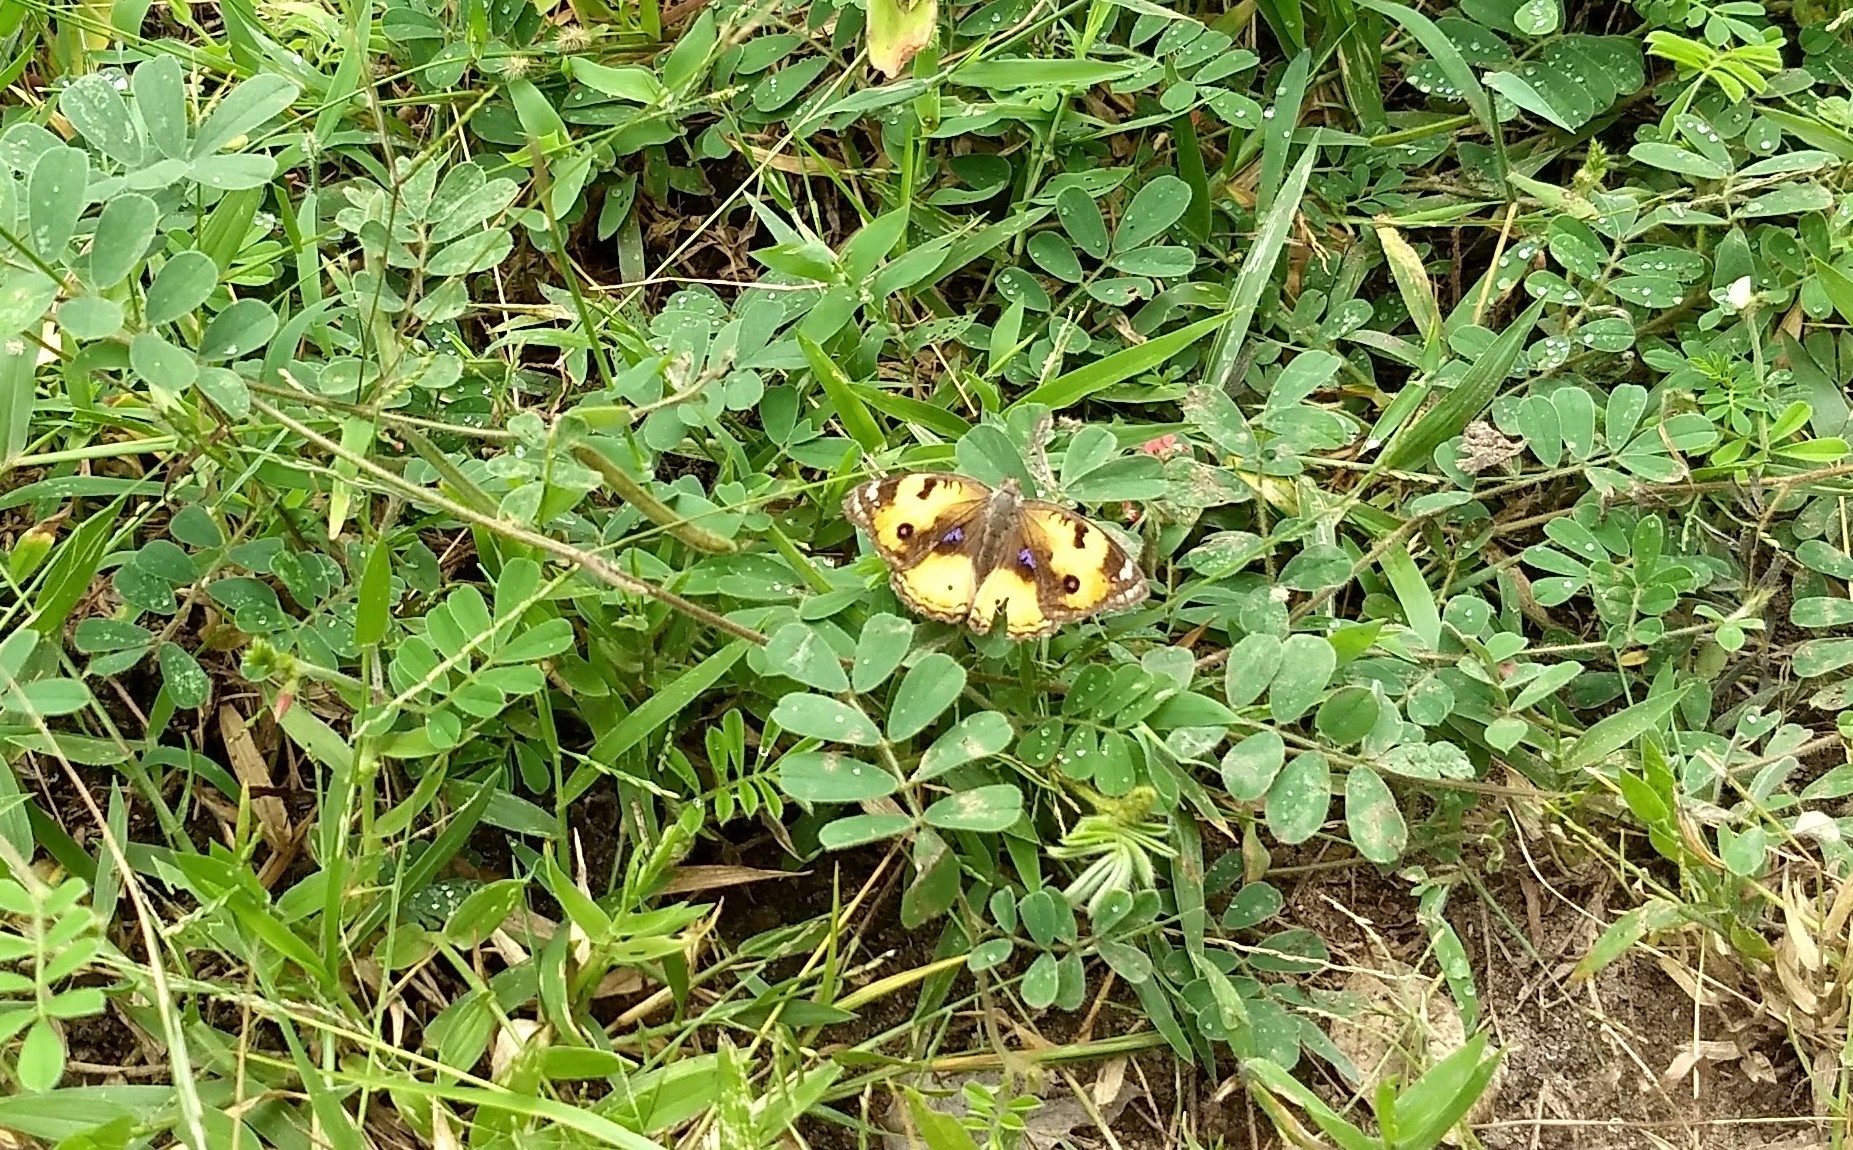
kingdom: Animalia
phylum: Arthropoda
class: Insecta
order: Lepidoptera
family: Nymphalidae
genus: Junonia
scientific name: Junonia hierta
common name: Yellow pansy
